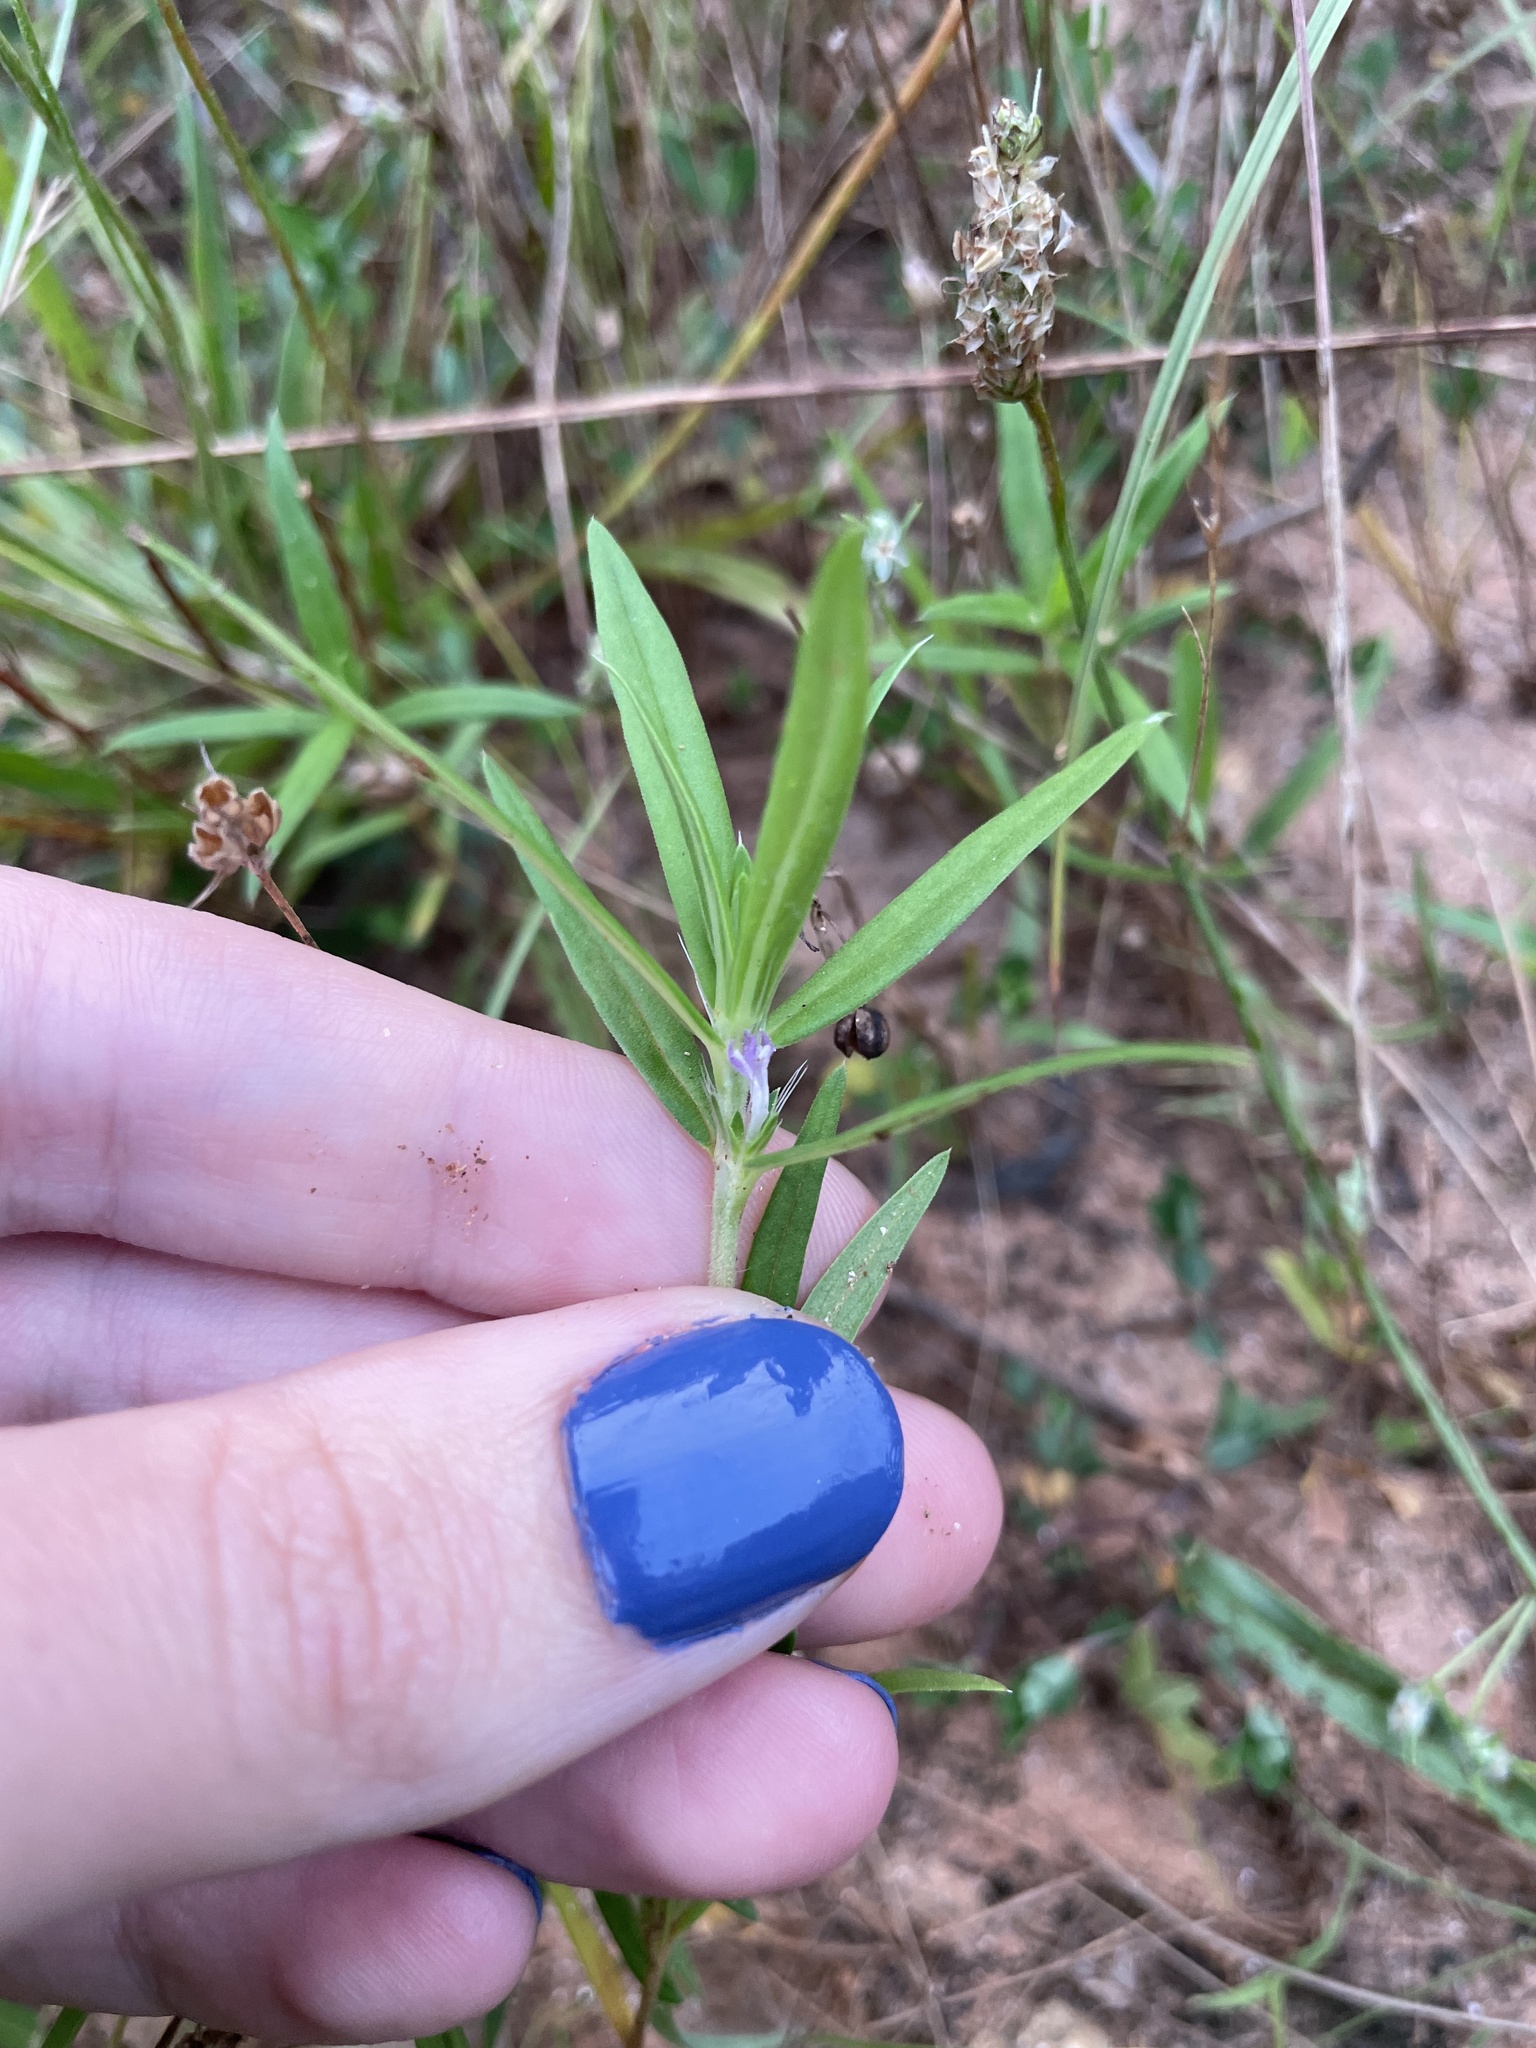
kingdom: Plantae
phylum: Tracheophyta
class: Magnoliopsida
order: Gentianales
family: Rubiaceae
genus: Hexasepalum
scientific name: Hexasepalum teres
